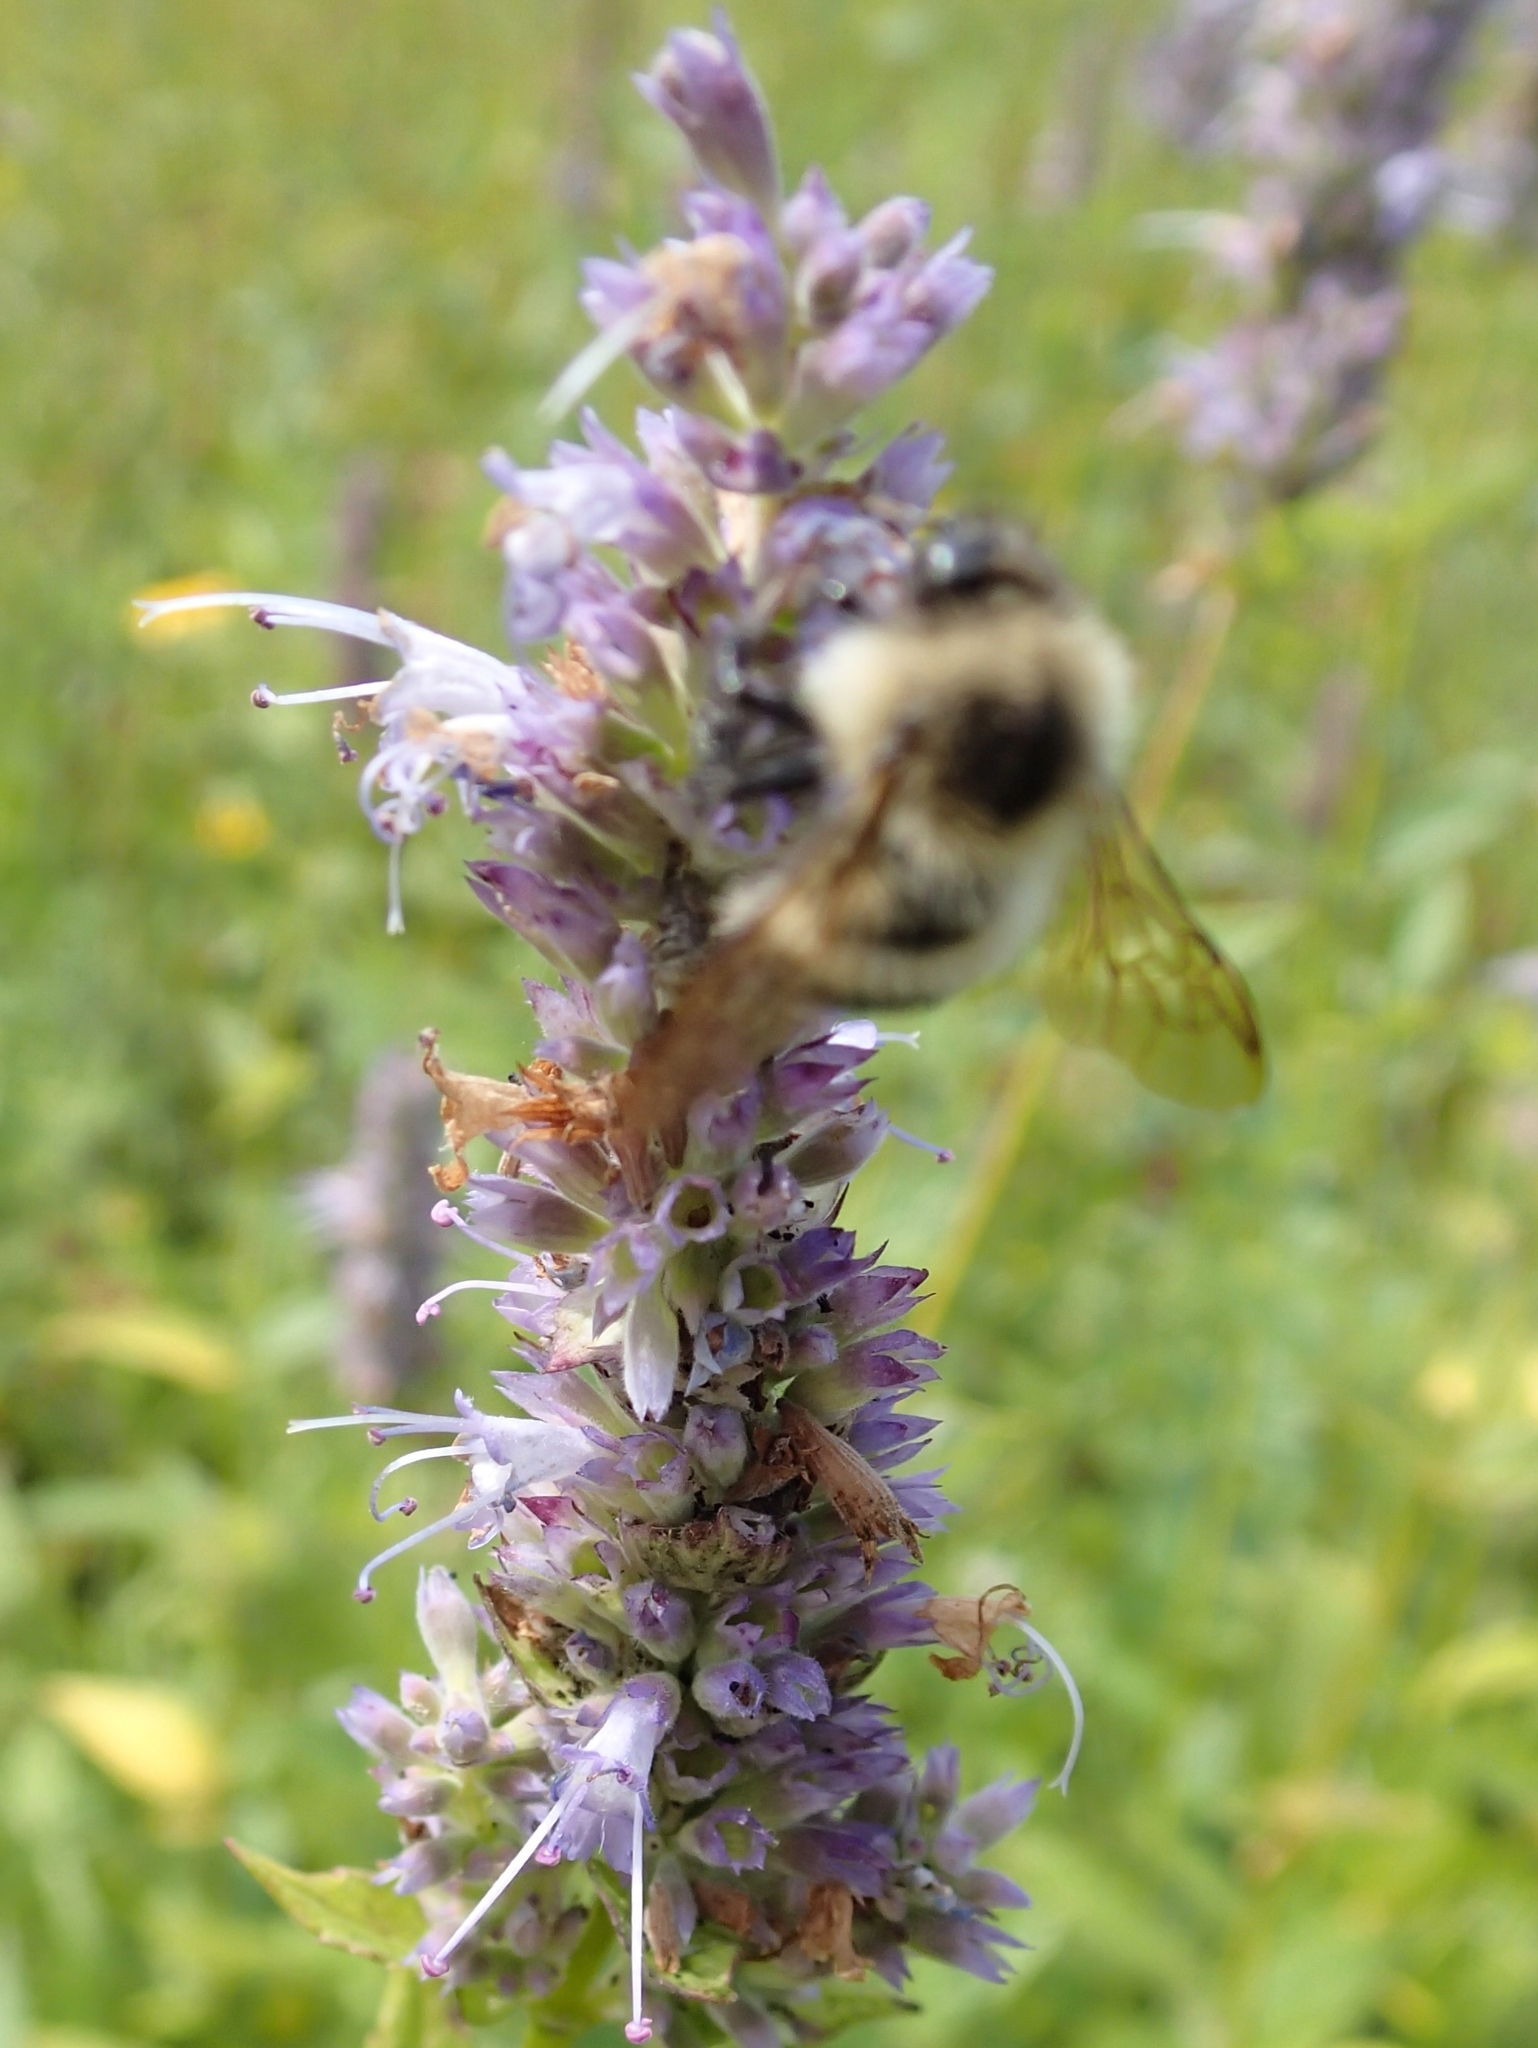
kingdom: Animalia
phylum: Arthropoda
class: Insecta
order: Hymenoptera
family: Apidae
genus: Pyrobombus
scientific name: Pyrobombus
